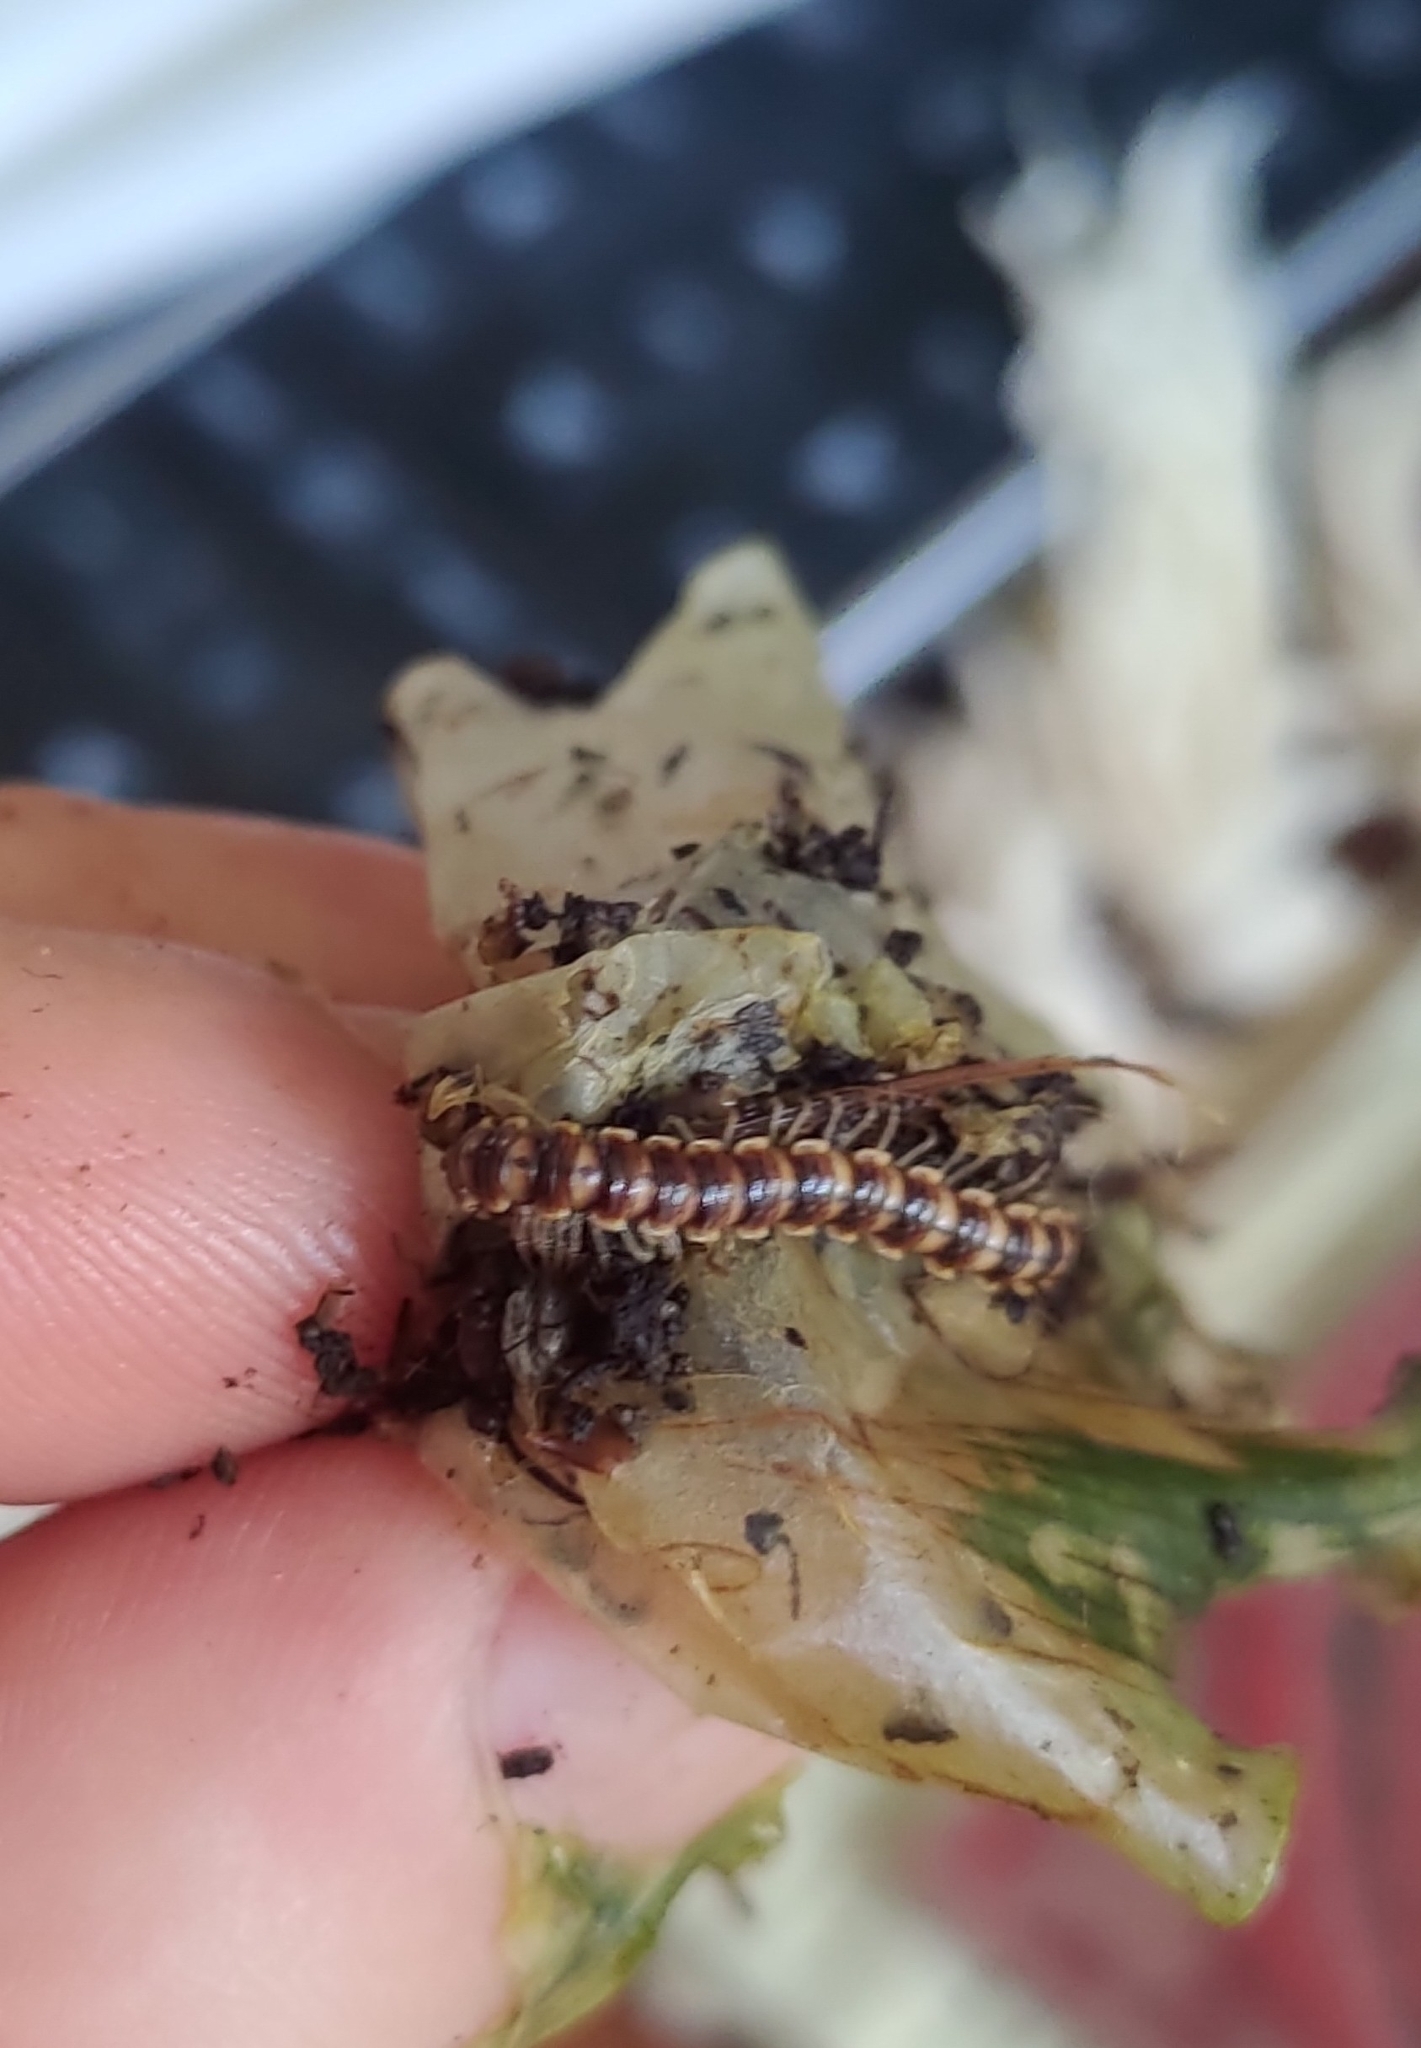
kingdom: Animalia
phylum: Arthropoda
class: Diplopoda
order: Polydesmida
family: Paradoxosomatidae
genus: Oxidus
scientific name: Oxidus gracilis
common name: Greenhouse millipede
